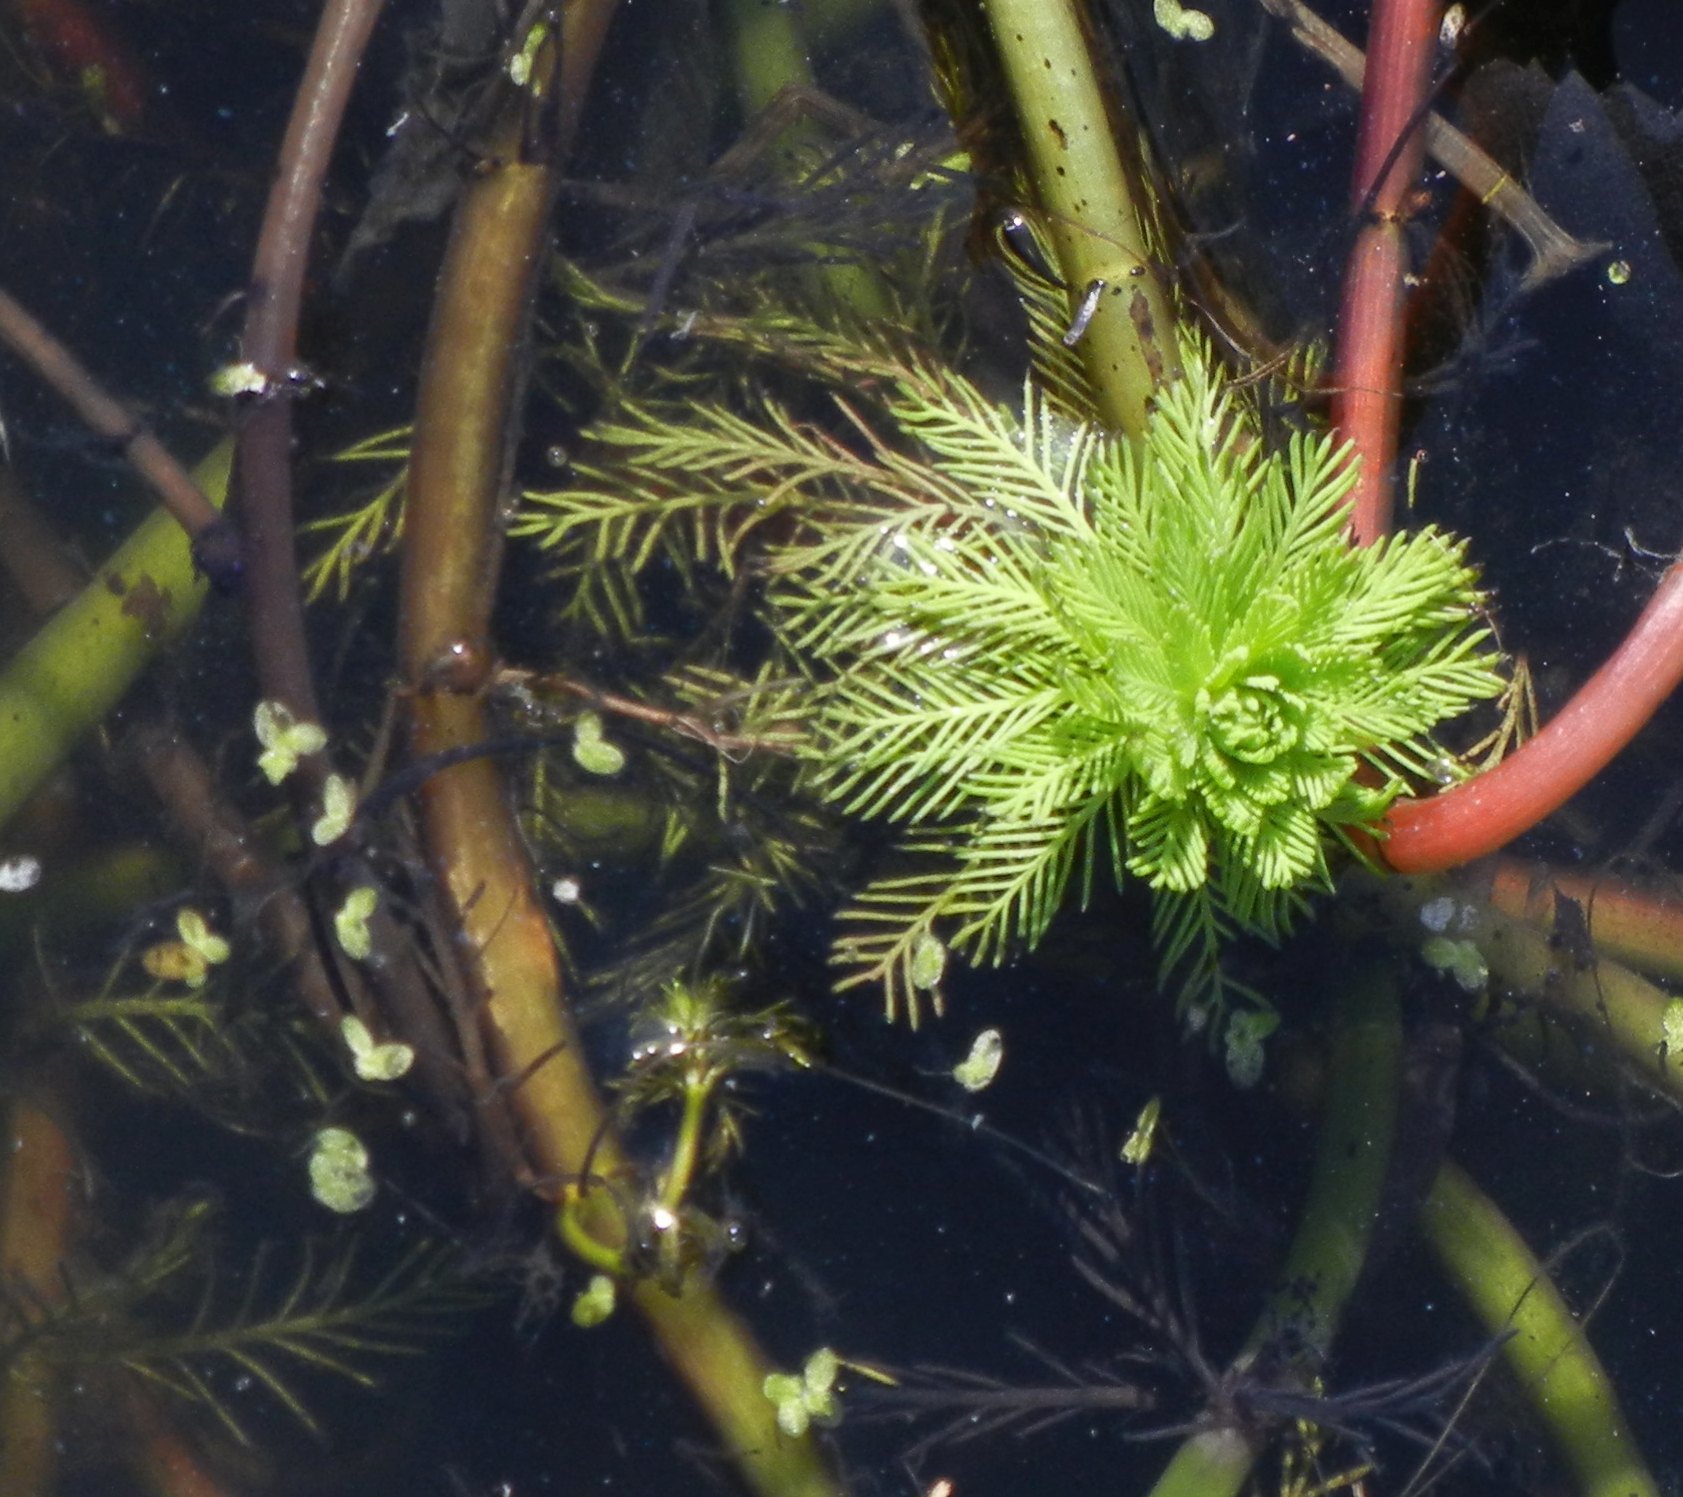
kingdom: Plantae
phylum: Tracheophyta
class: Magnoliopsida
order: Saxifragales
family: Haloragaceae
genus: Myriophyllum
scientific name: Myriophyllum aquaticum
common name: Parrot's feather
